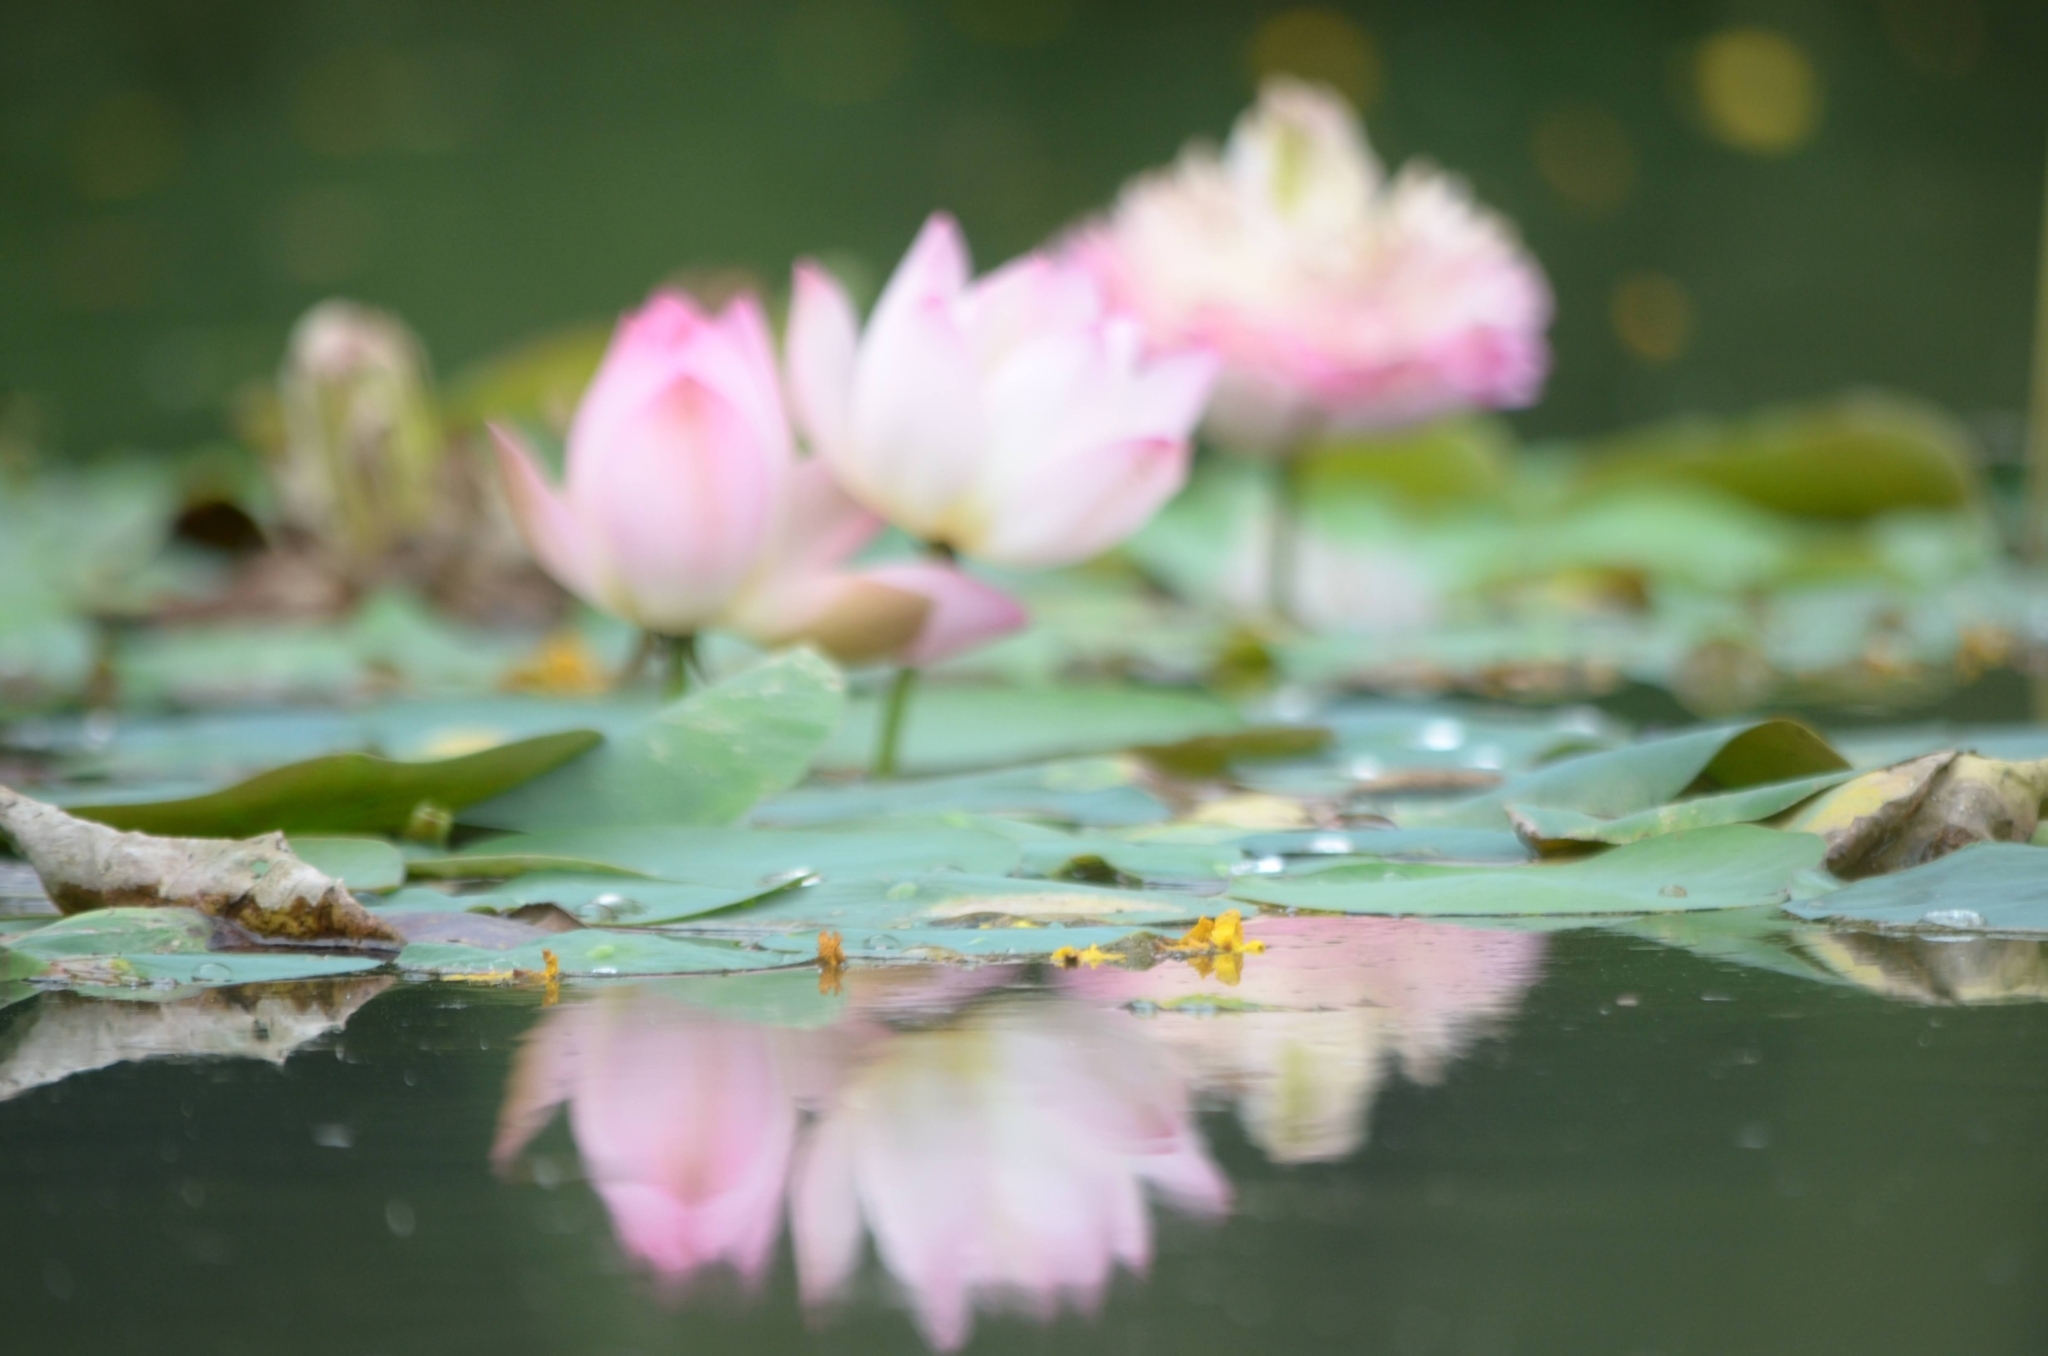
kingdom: Plantae
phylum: Tracheophyta
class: Magnoliopsida
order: Proteales
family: Nelumbonaceae
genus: Nelumbo
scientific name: Nelumbo nucifera
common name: Sacred lotus
